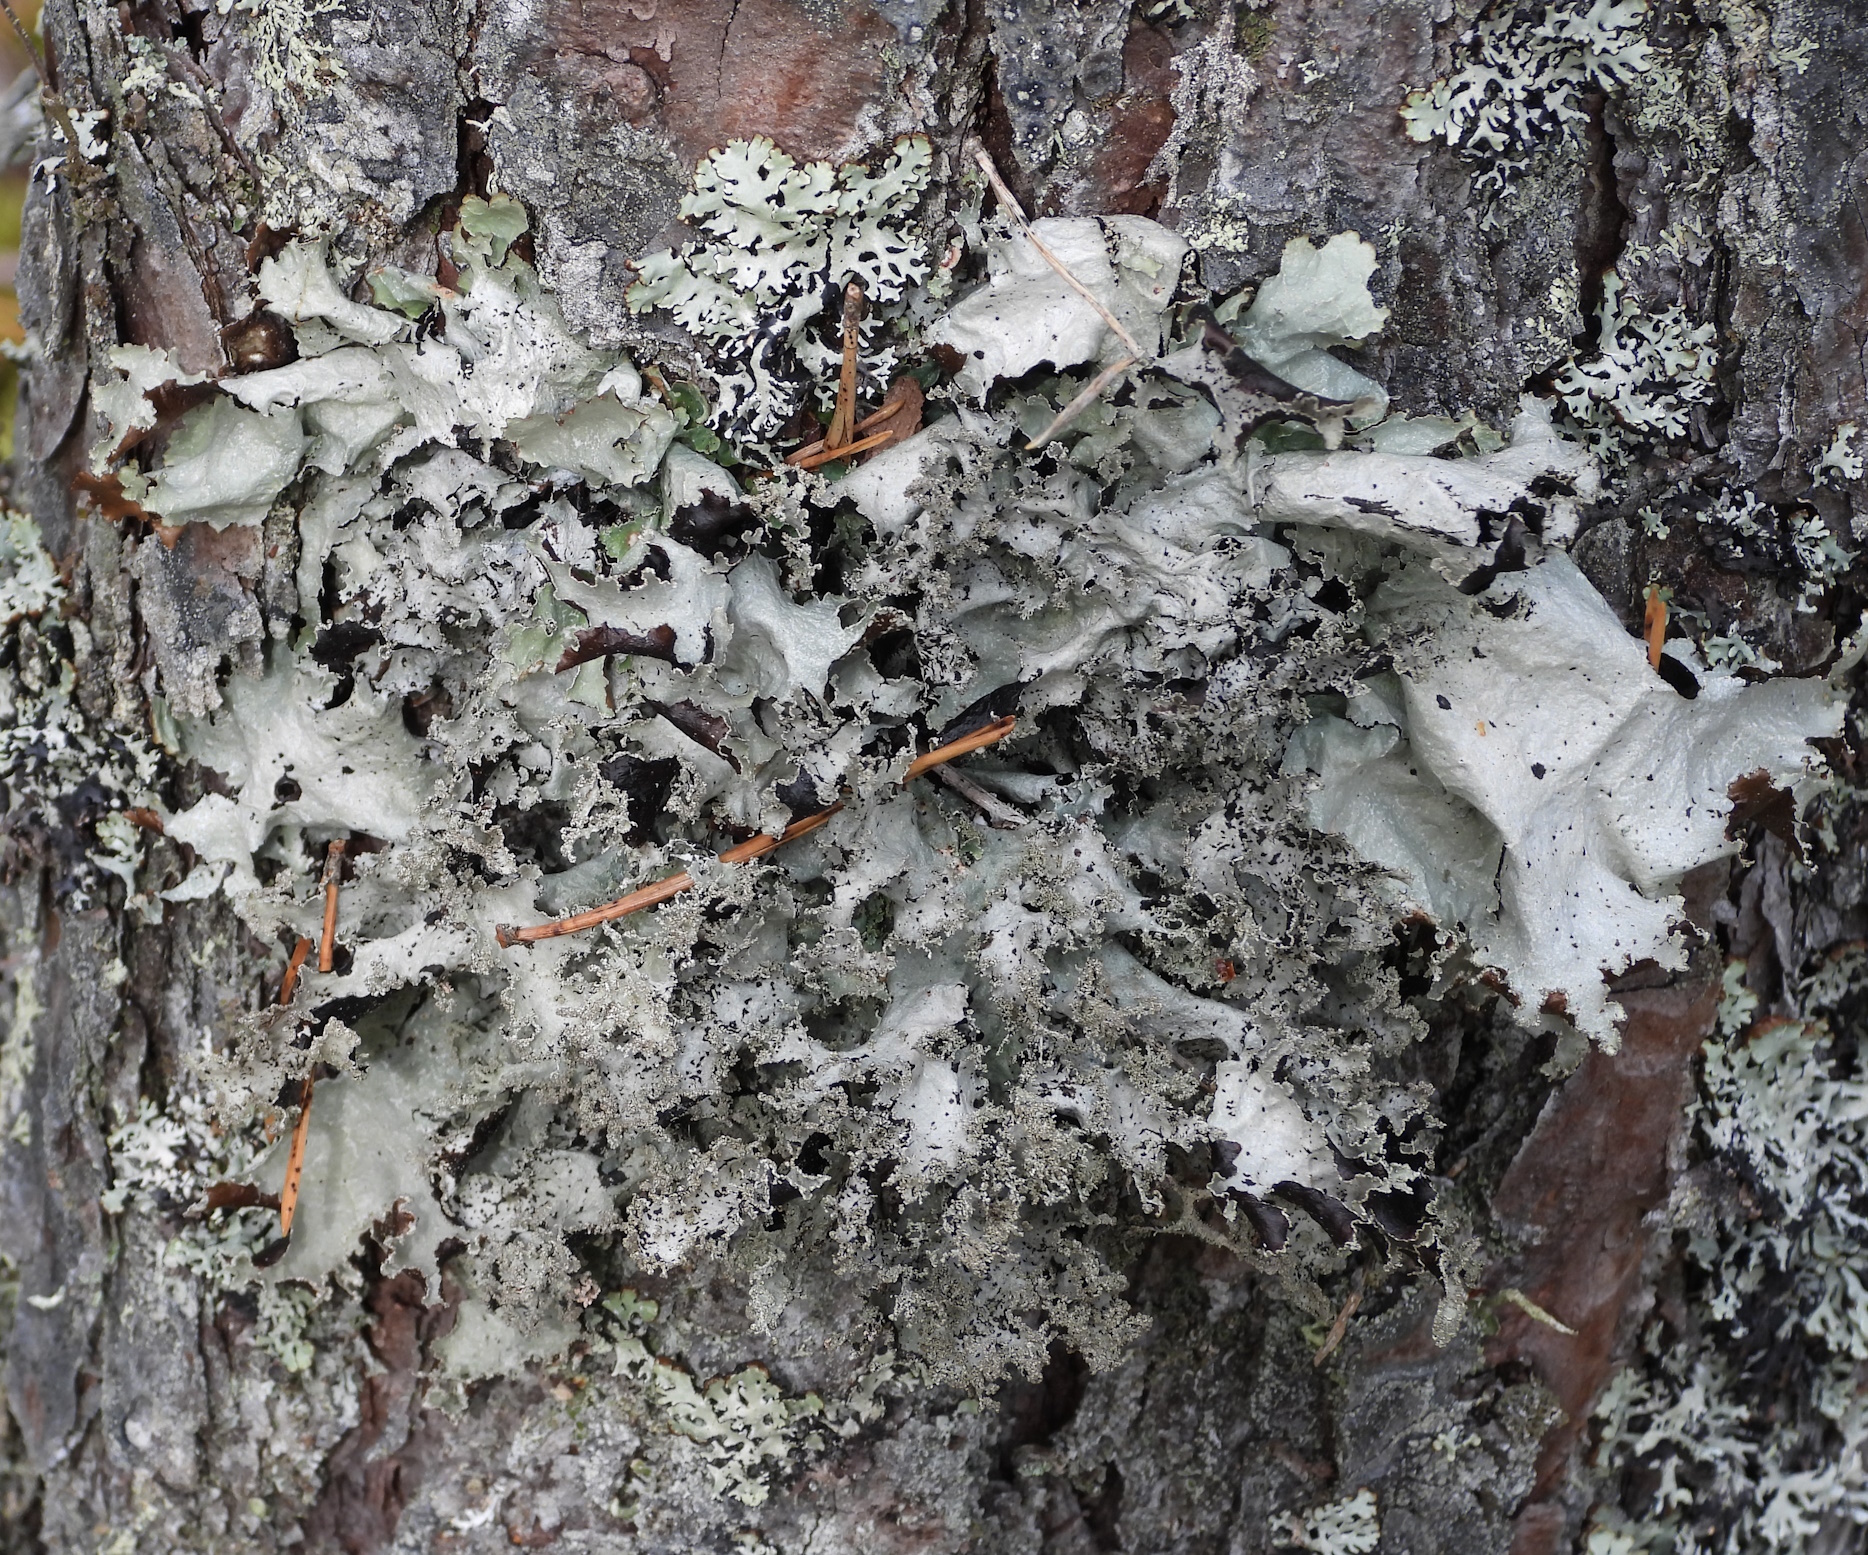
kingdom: Fungi
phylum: Ascomycota
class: Lecanoromycetes
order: Lecanorales
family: Parmeliaceae
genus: Platismatia
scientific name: Platismatia glauca
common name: Varied rag lichen
